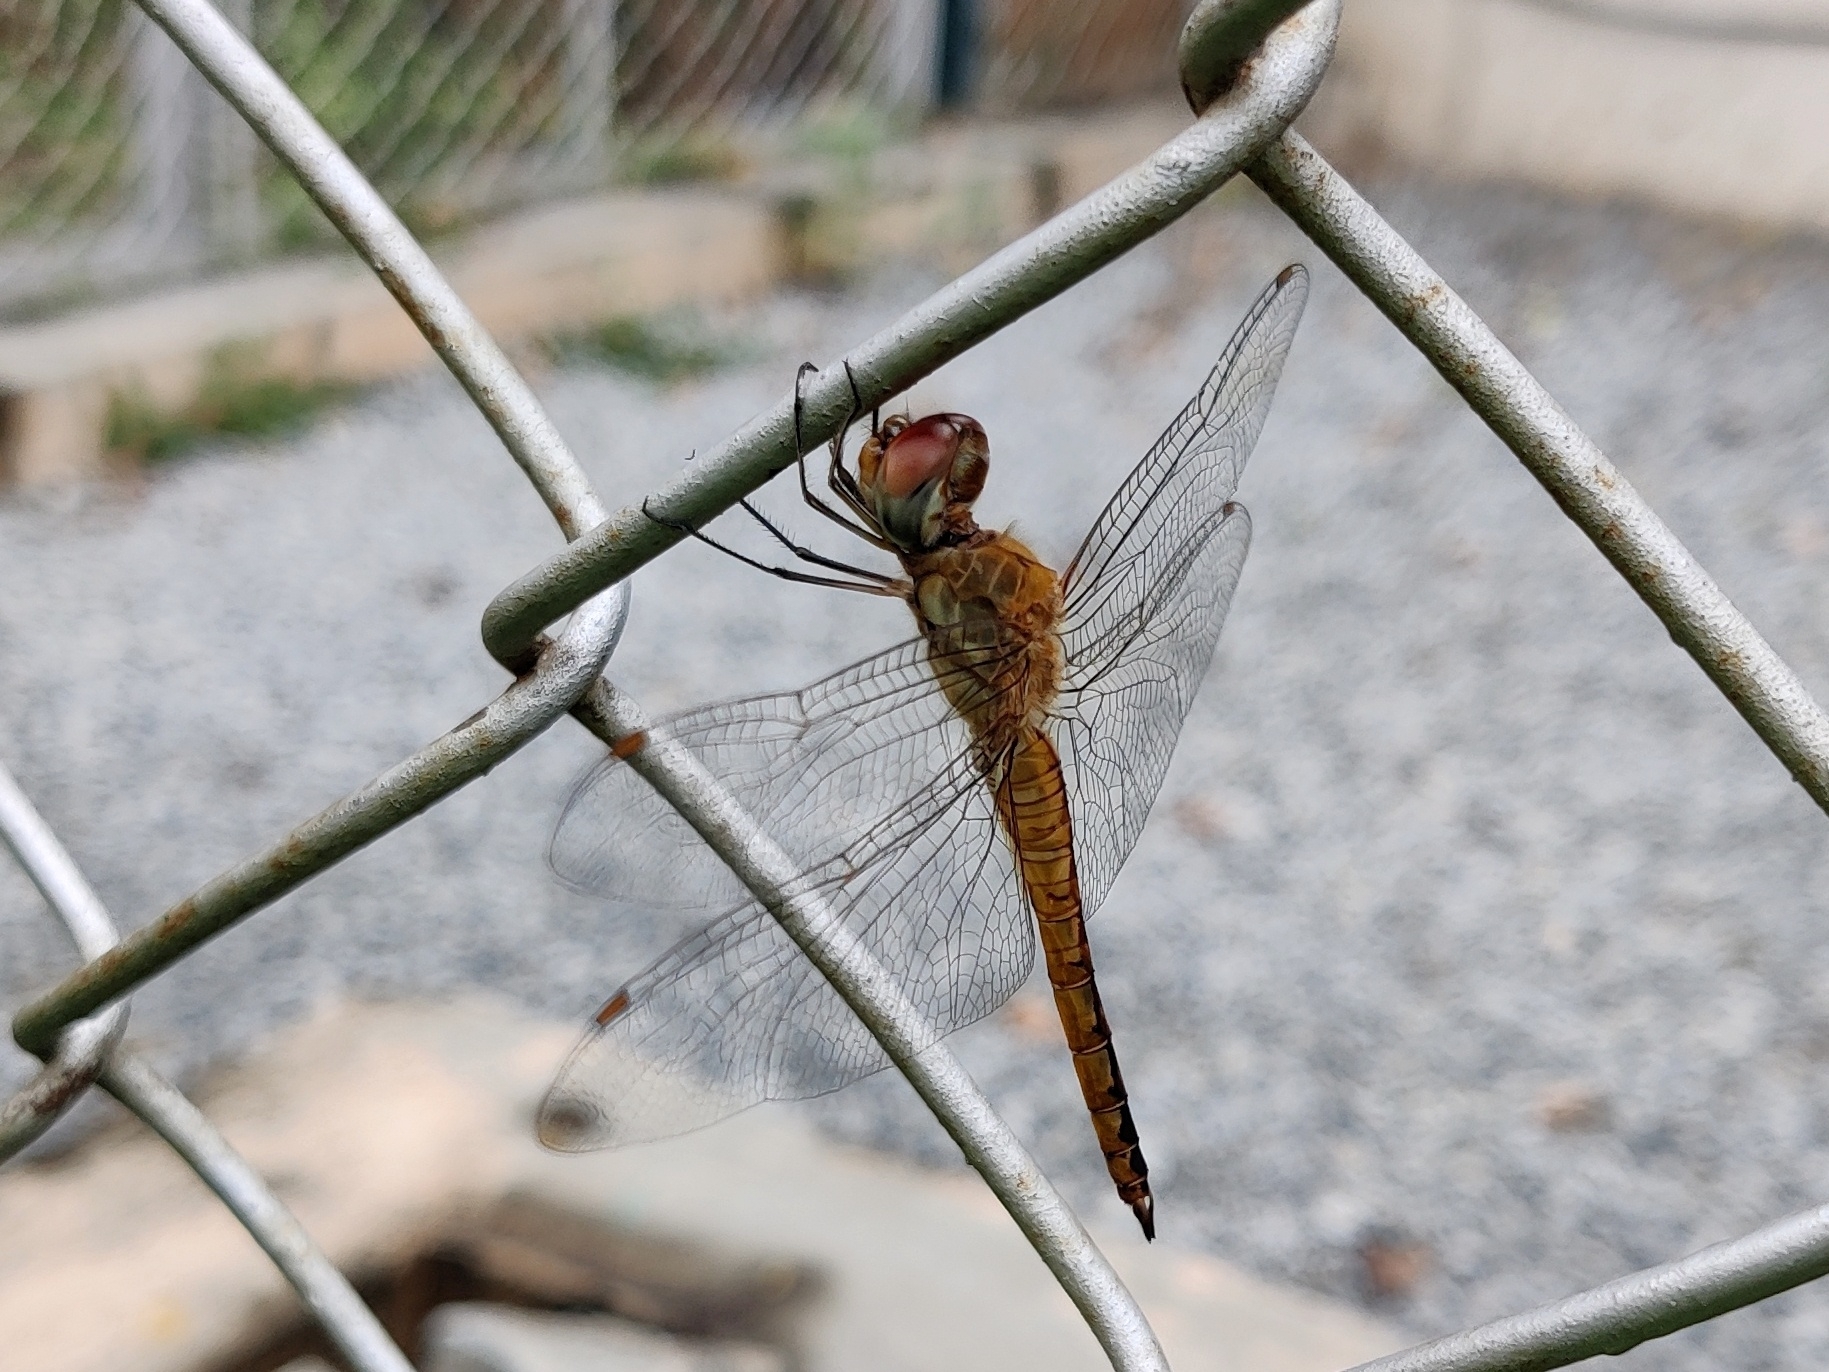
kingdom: Animalia
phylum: Arthropoda
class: Insecta
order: Odonata
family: Libellulidae
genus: Pantala
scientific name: Pantala flavescens
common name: Wandering glider
